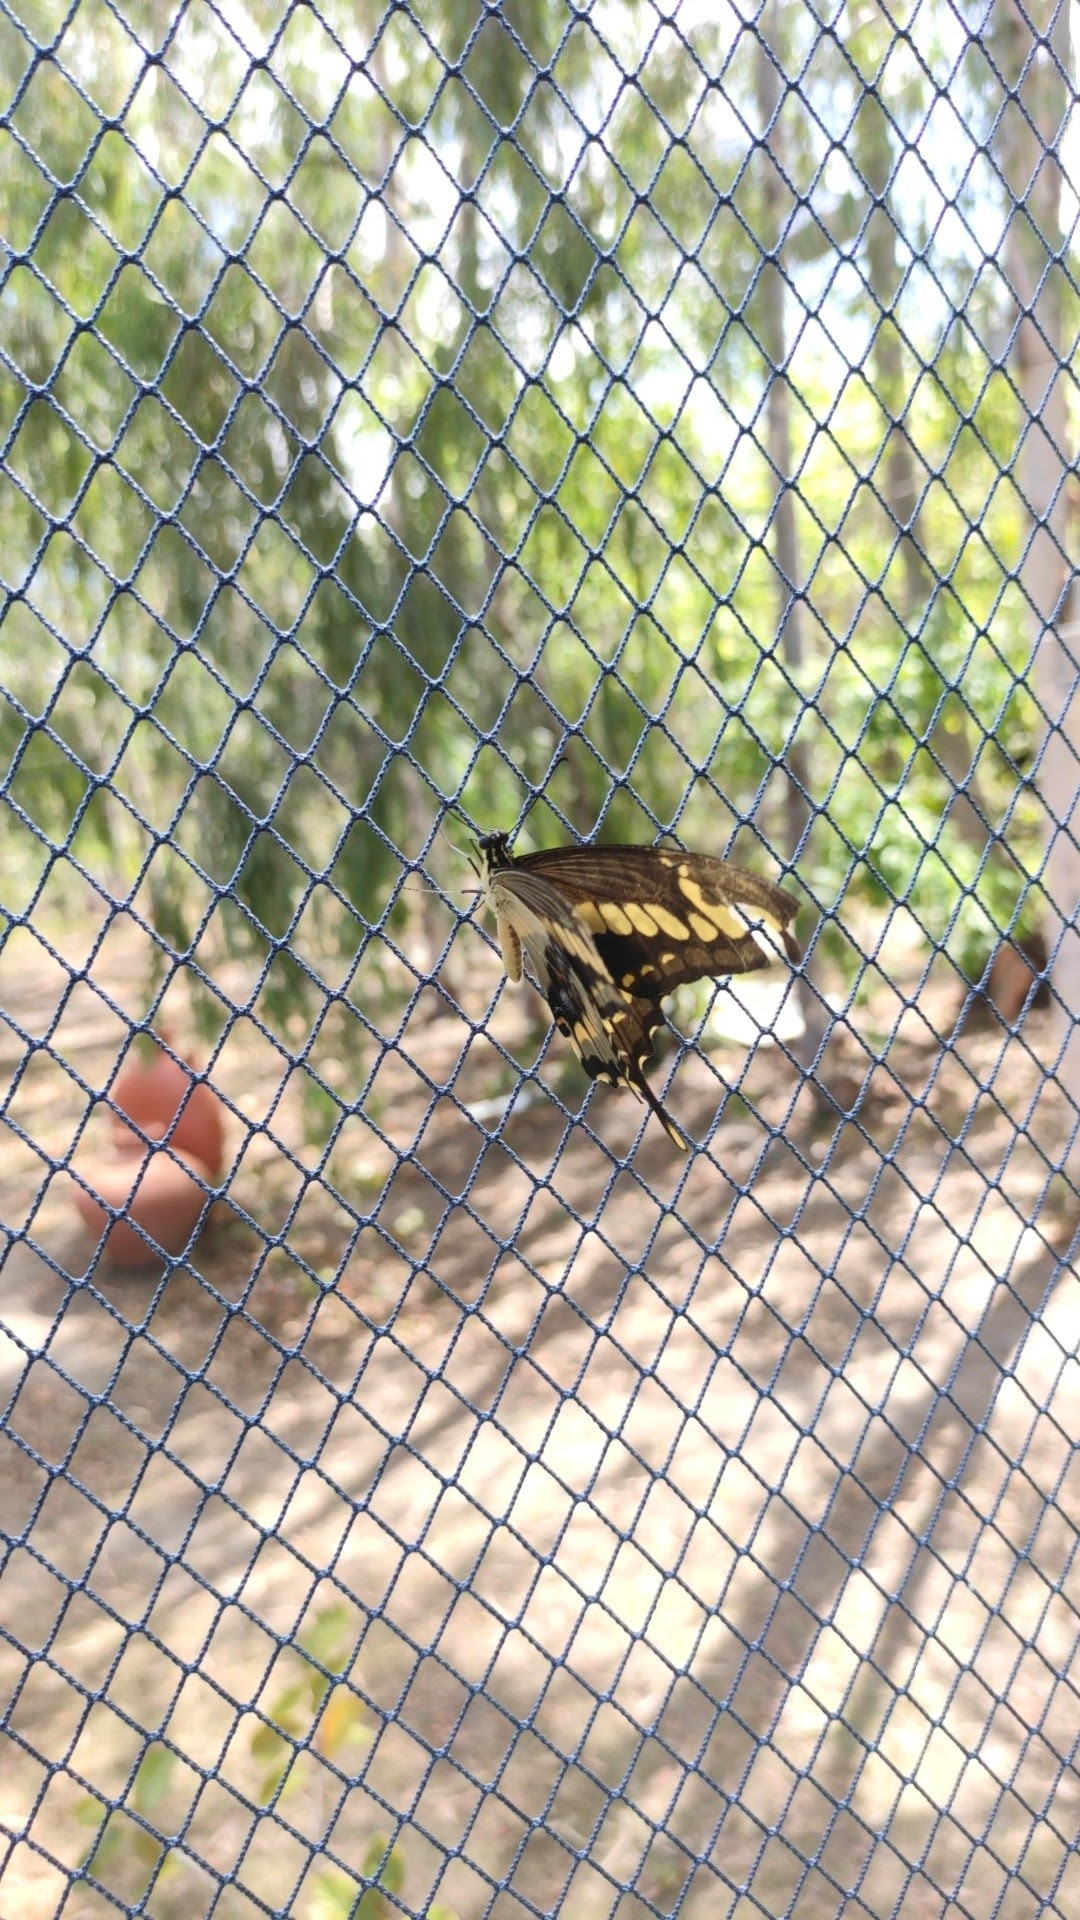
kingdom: Animalia
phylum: Arthropoda
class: Insecta
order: Lepidoptera
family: Papilionidae
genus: Papilio
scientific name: Papilio thoas
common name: King swallowtail
